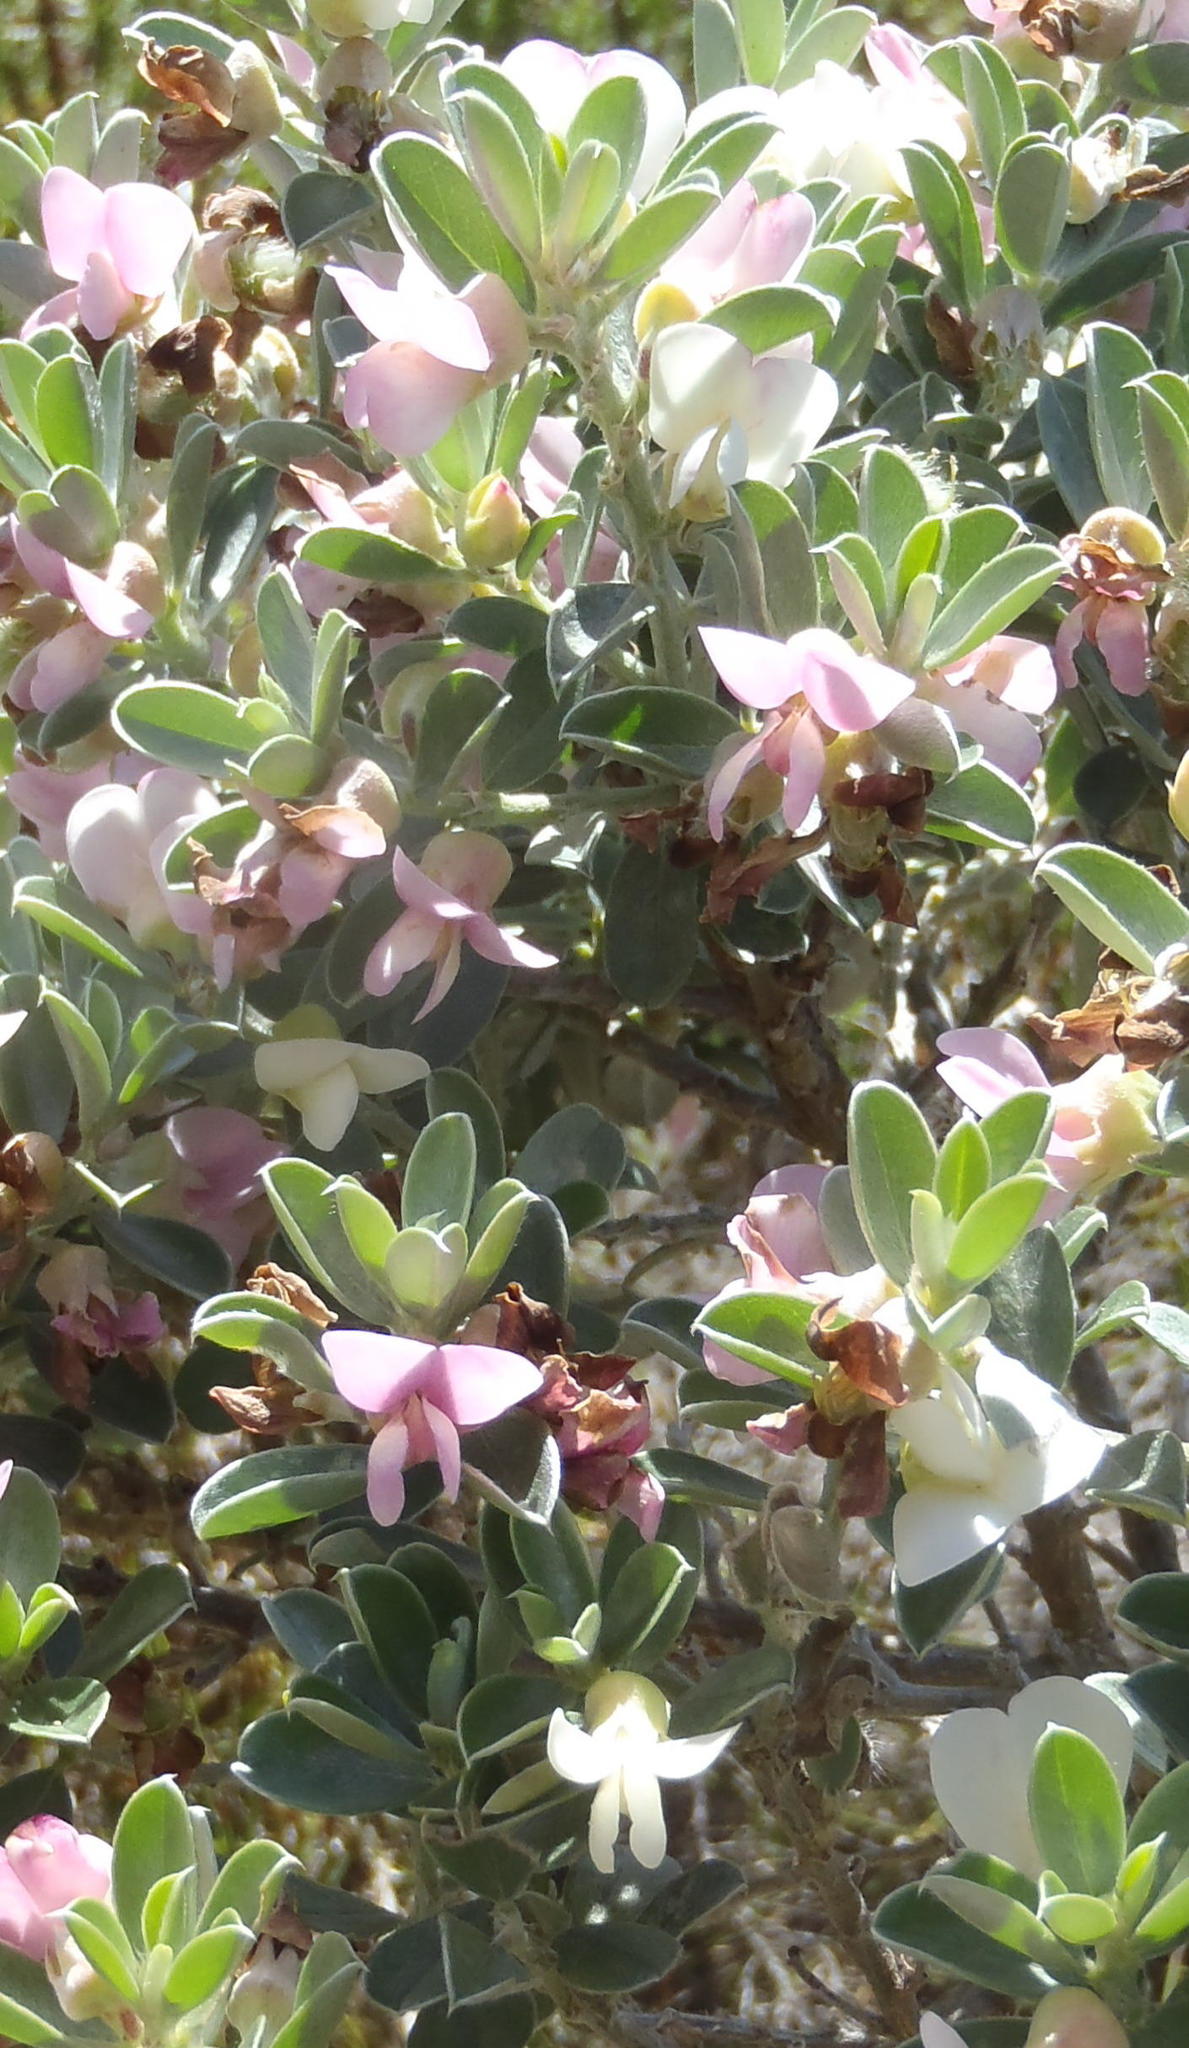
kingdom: Plantae
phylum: Tracheophyta
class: Magnoliopsida
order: Fabales
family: Fabaceae
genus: Podalyria
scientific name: Podalyria myrtillifolia
